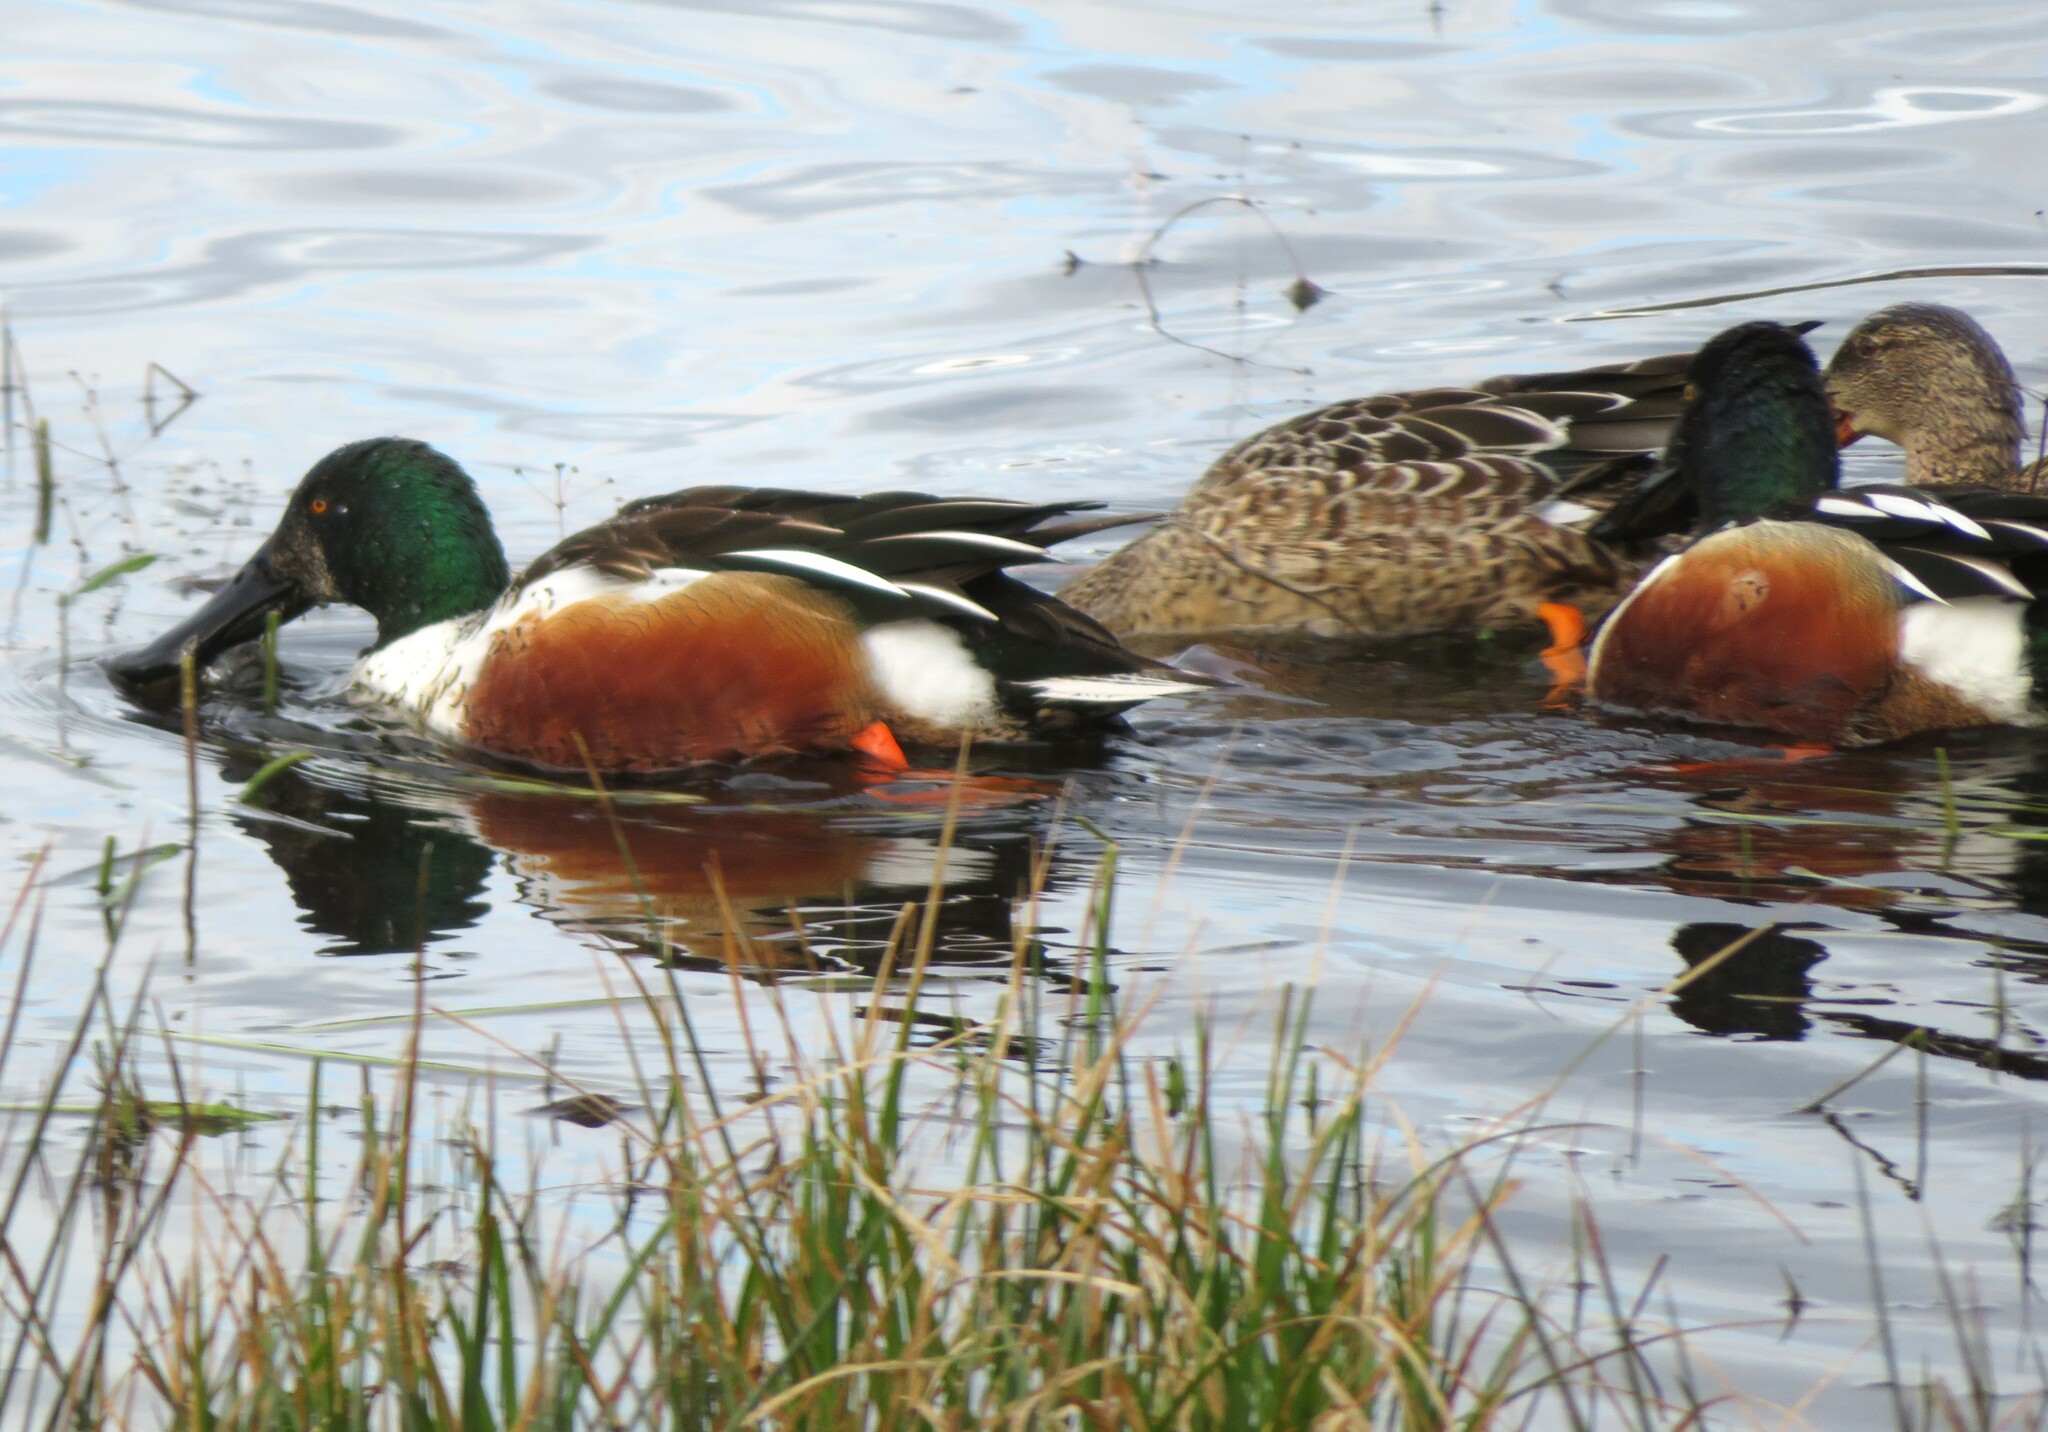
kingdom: Animalia
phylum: Chordata
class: Aves
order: Anseriformes
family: Anatidae
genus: Spatula
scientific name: Spatula clypeata
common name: Northern shoveler
